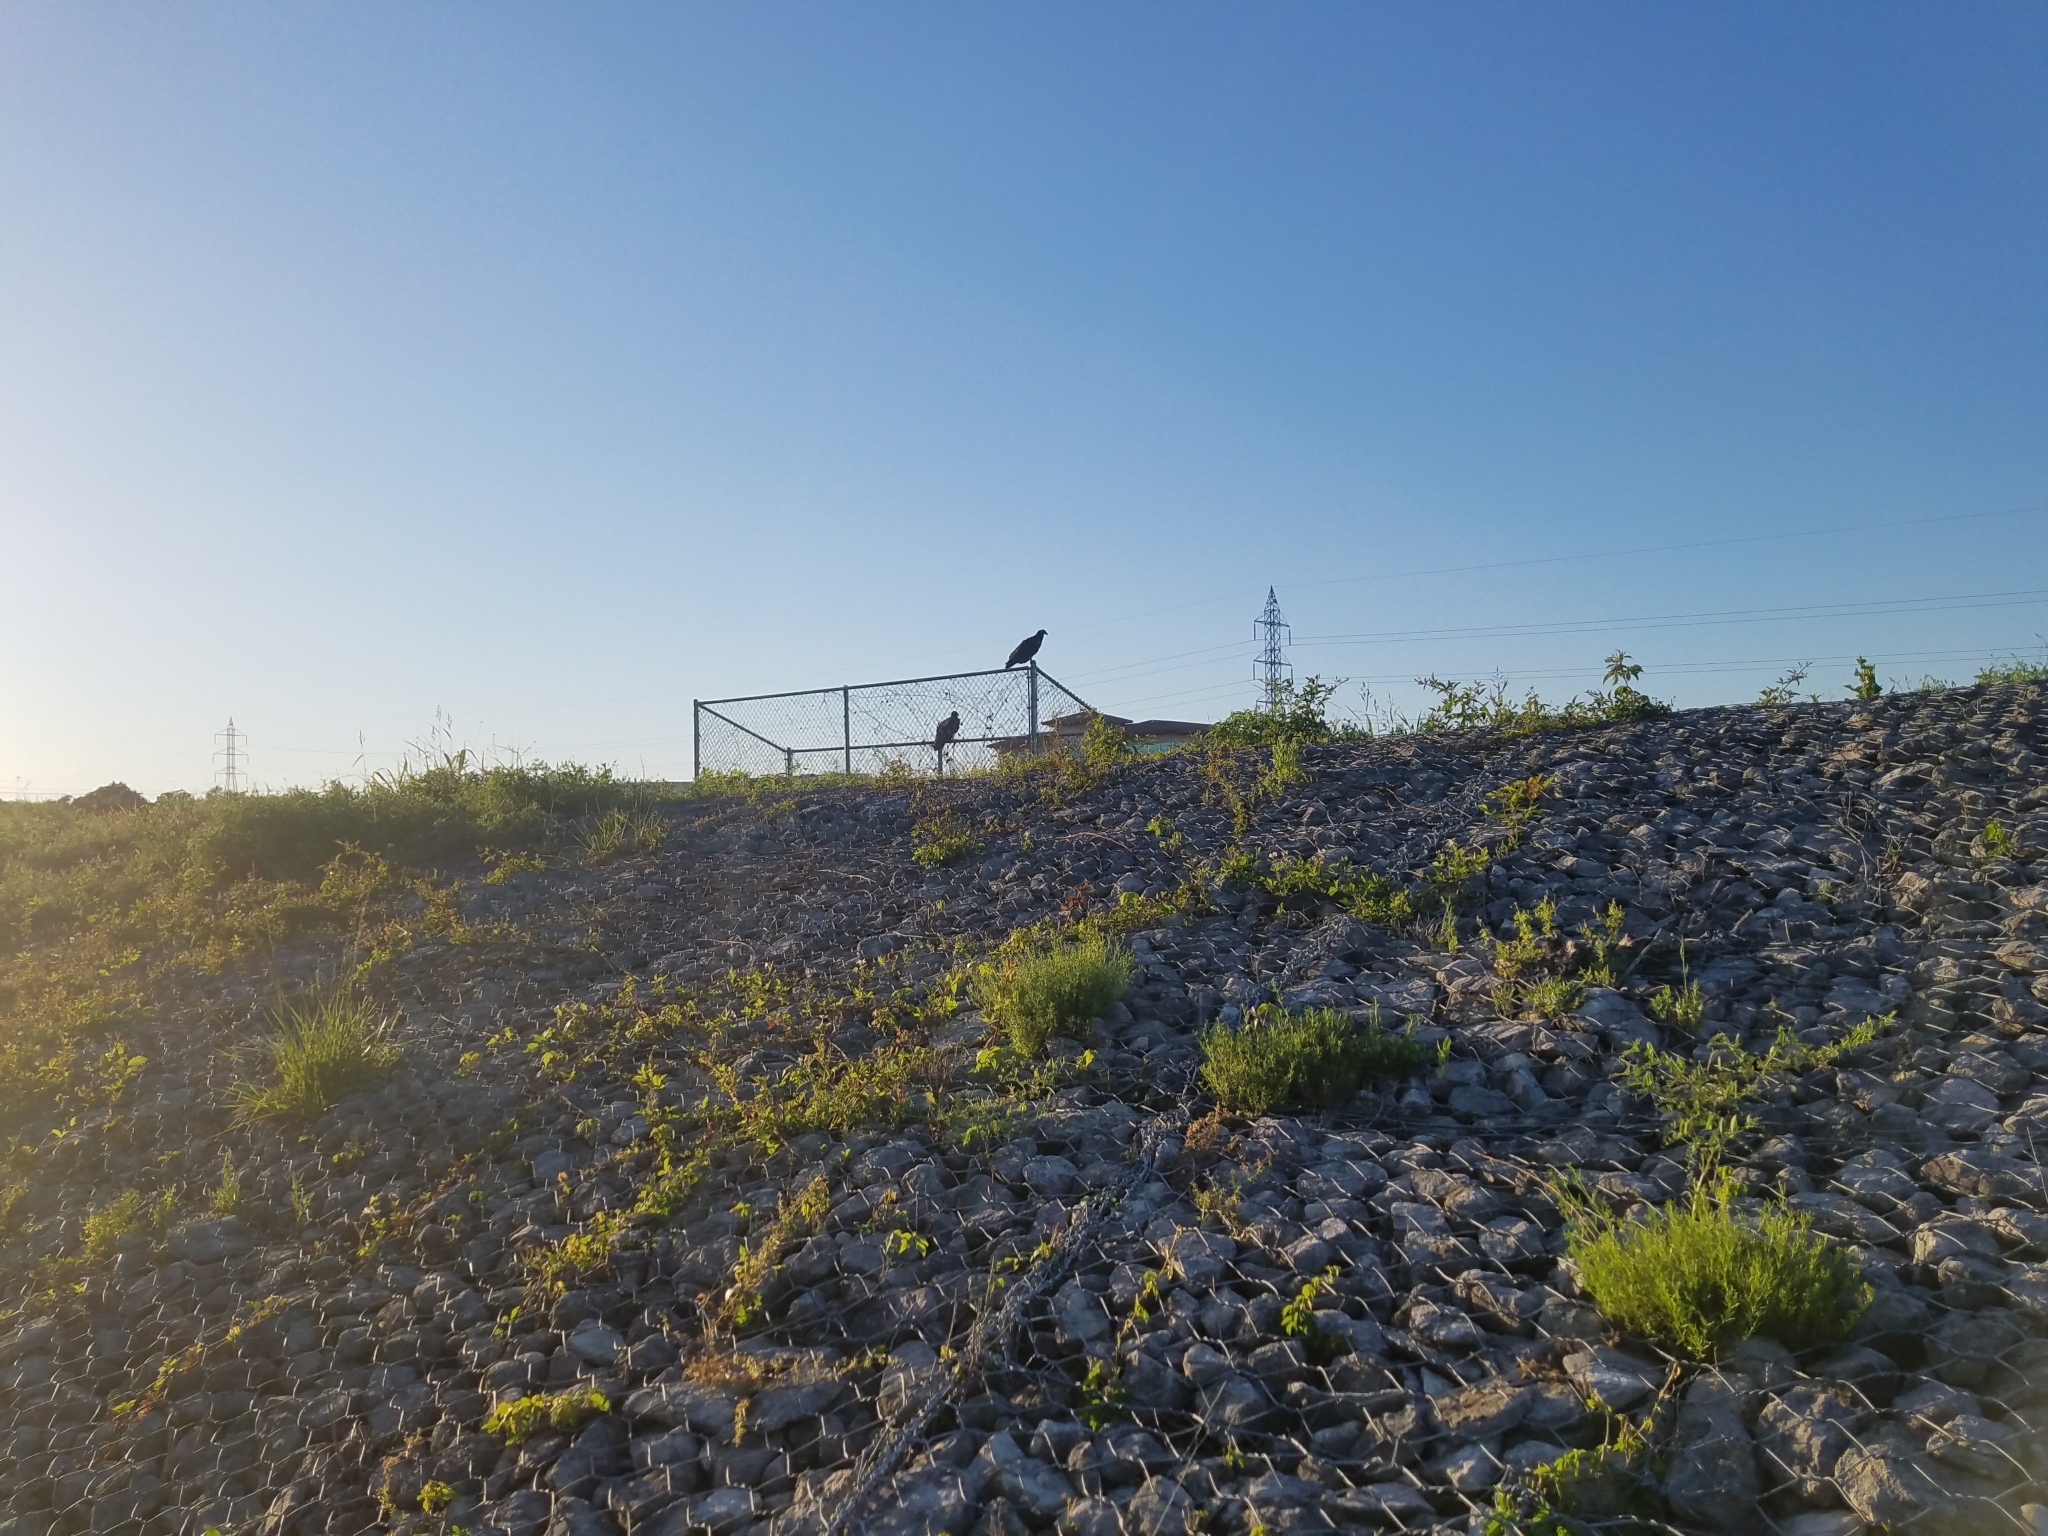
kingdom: Animalia
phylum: Chordata
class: Aves
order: Accipitriformes
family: Cathartidae
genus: Cathartes
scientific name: Cathartes aura
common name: Turkey vulture
